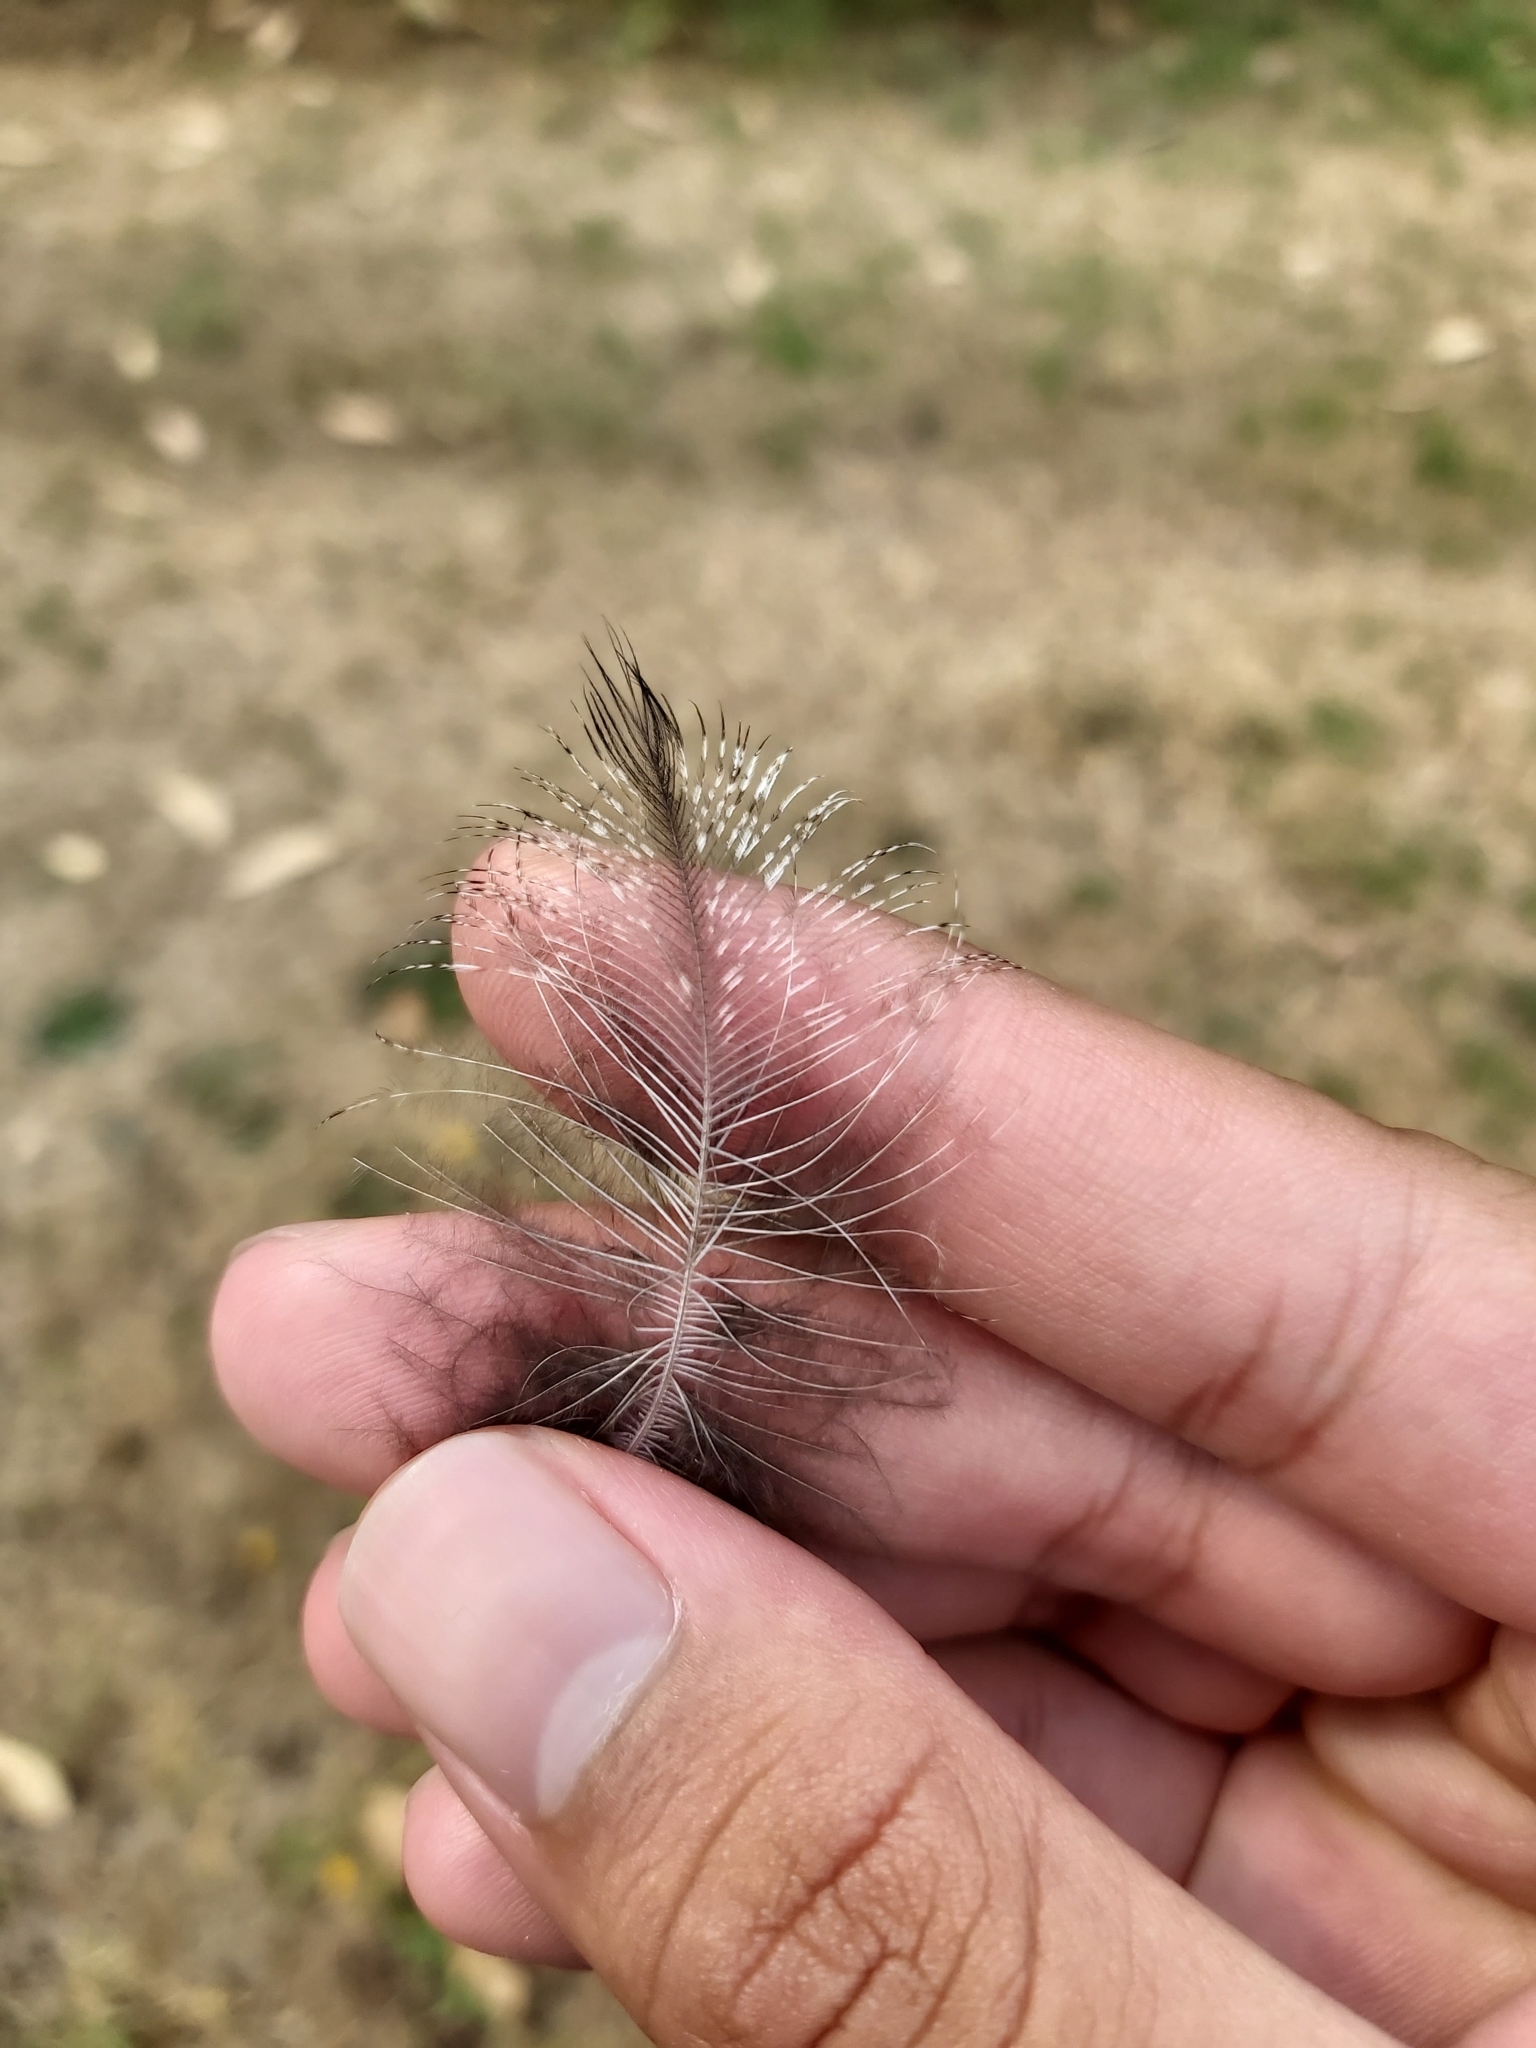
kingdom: Animalia
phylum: Chordata
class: Aves
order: Caprimulgiformes
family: Podargidae
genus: Podargus
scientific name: Podargus strigoides
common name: Tawny frogmouth
